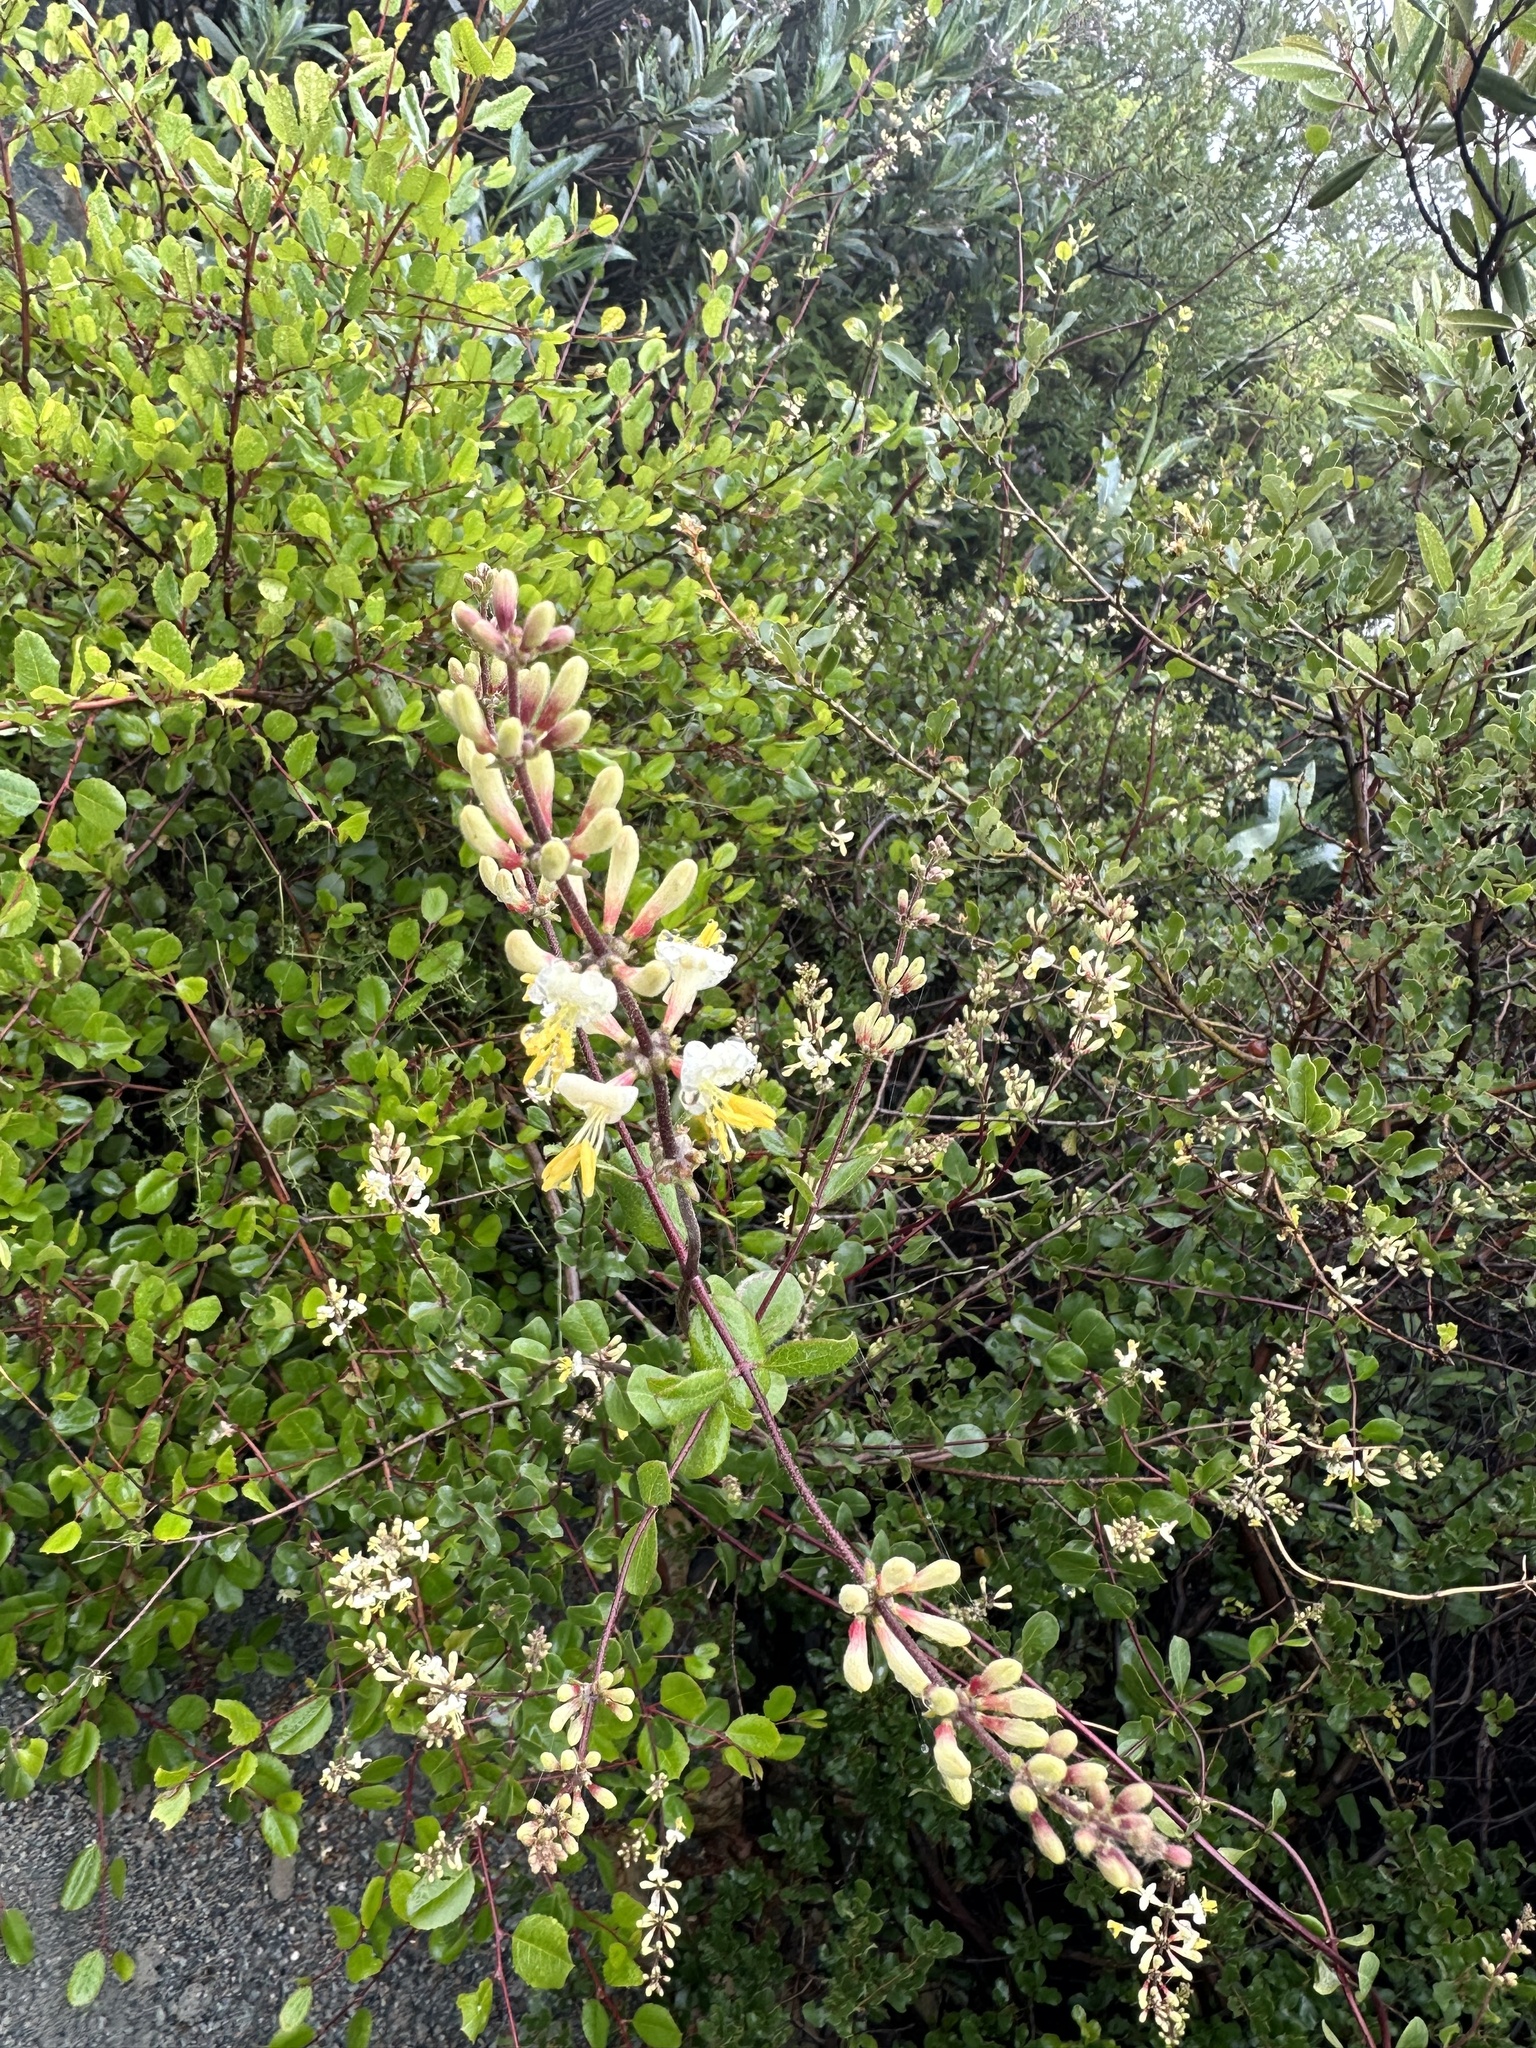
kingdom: Plantae
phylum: Tracheophyta
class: Magnoliopsida
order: Dipsacales
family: Caprifoliaceae
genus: Lonicera
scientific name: Lonicera subspicata
